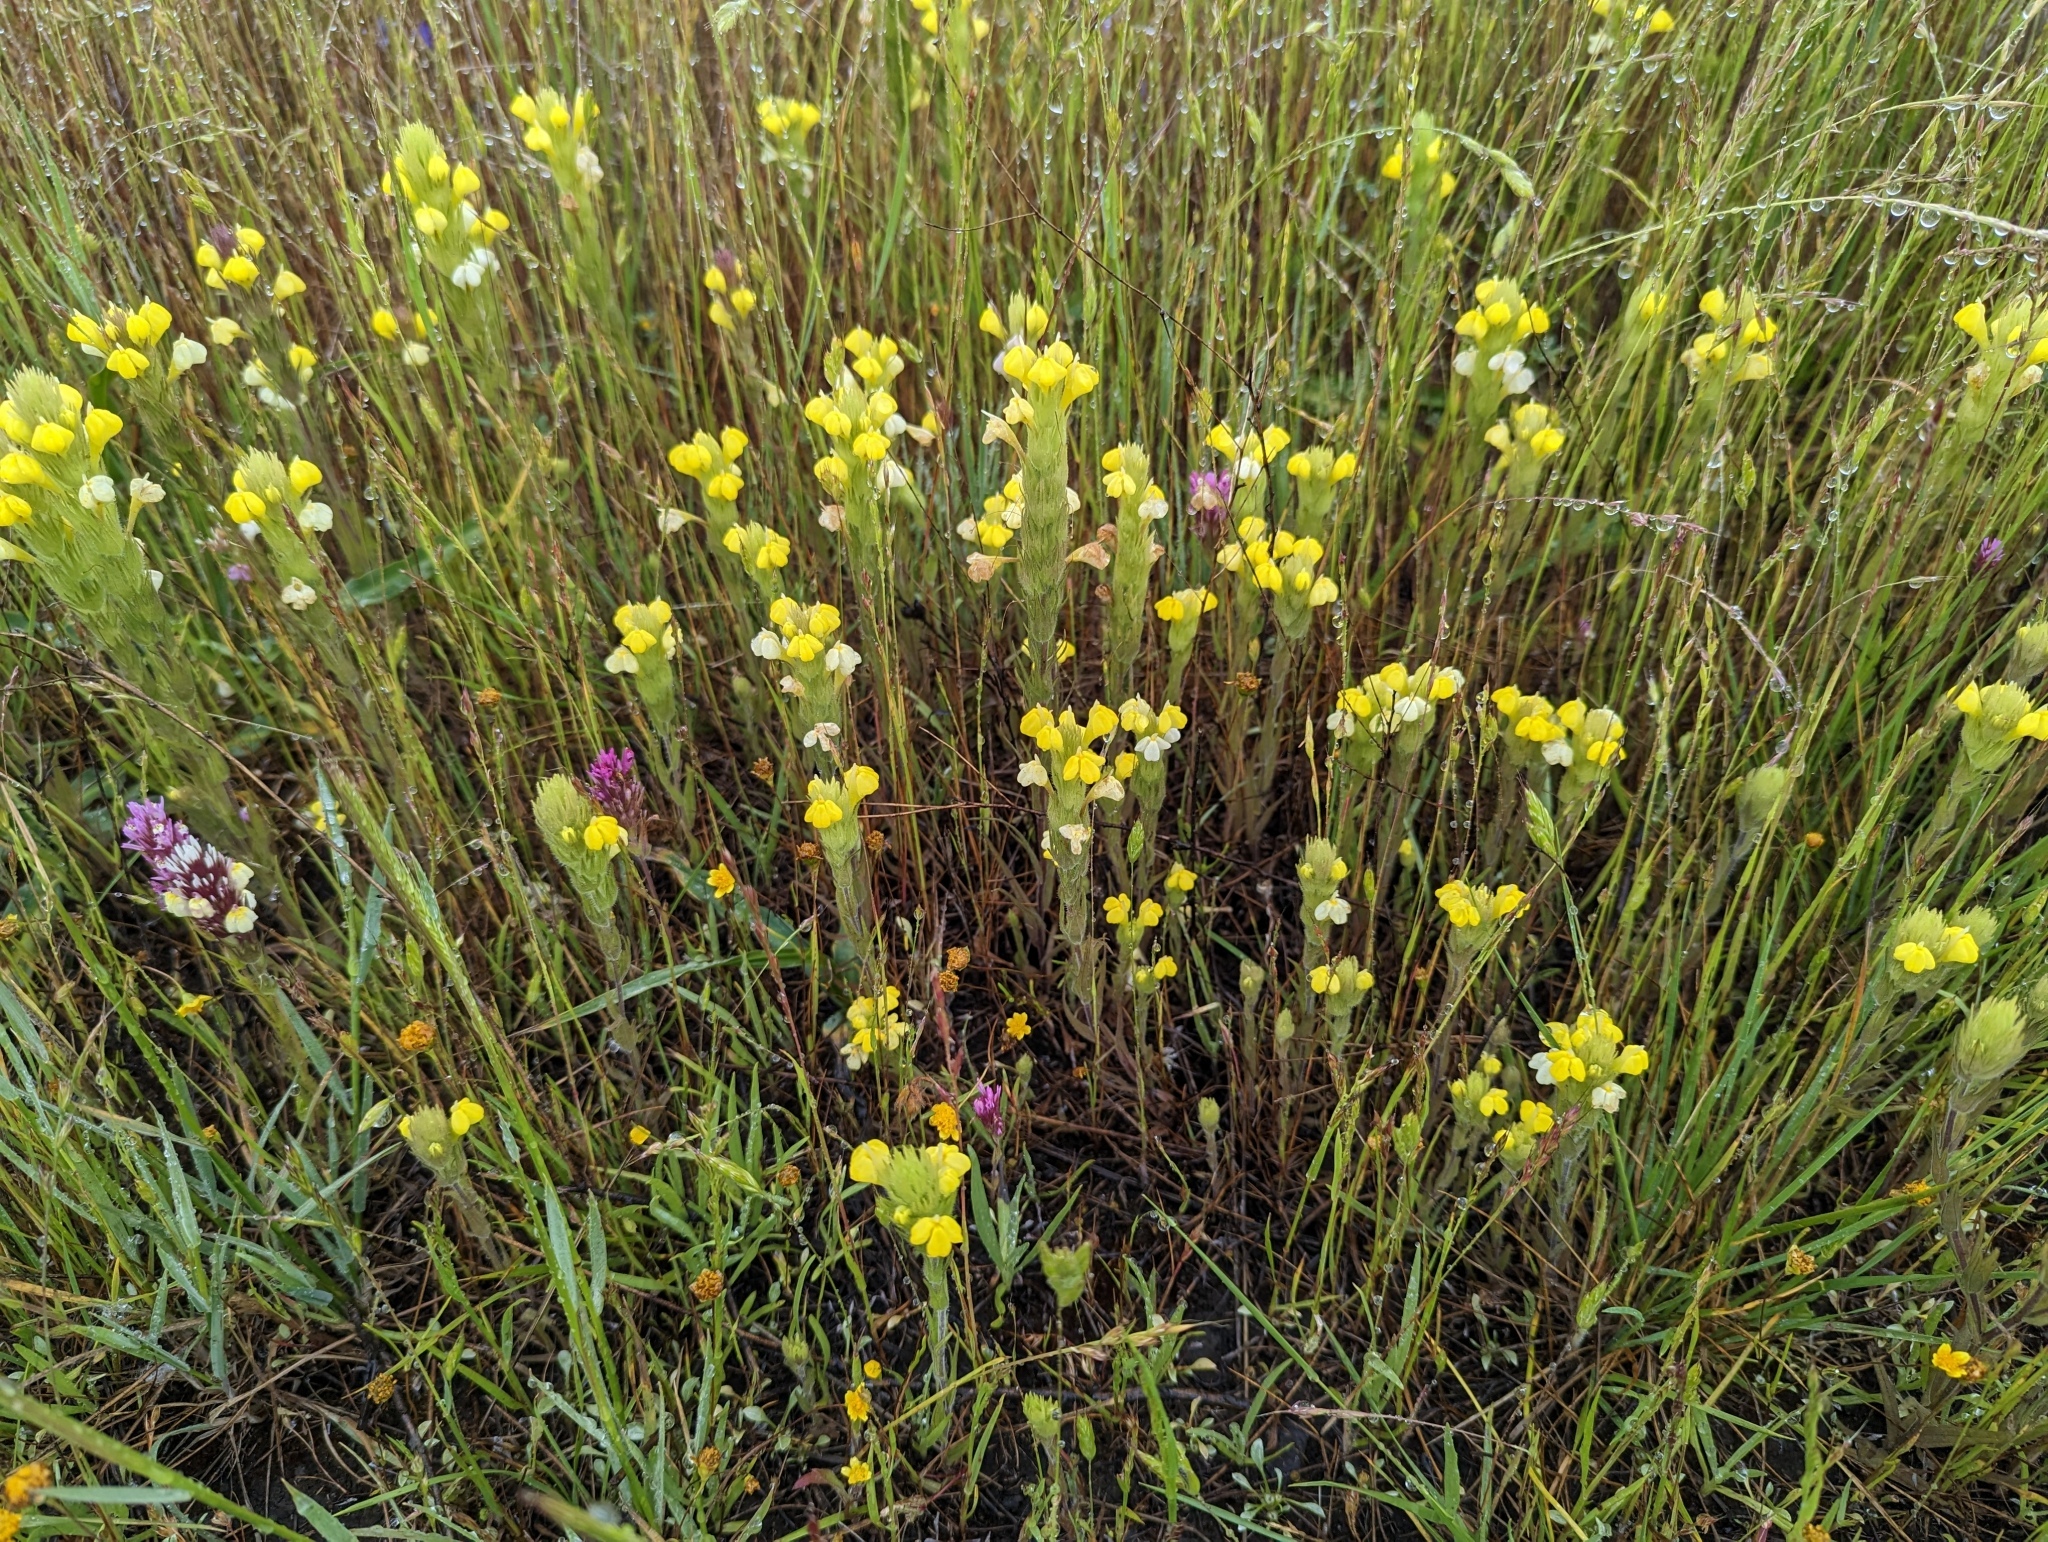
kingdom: Plantae
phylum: Tracheophyta
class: Magnoliopsida
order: Lamiales
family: Orobanchaceae
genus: Castilleja
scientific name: Castilleja rubicundula
